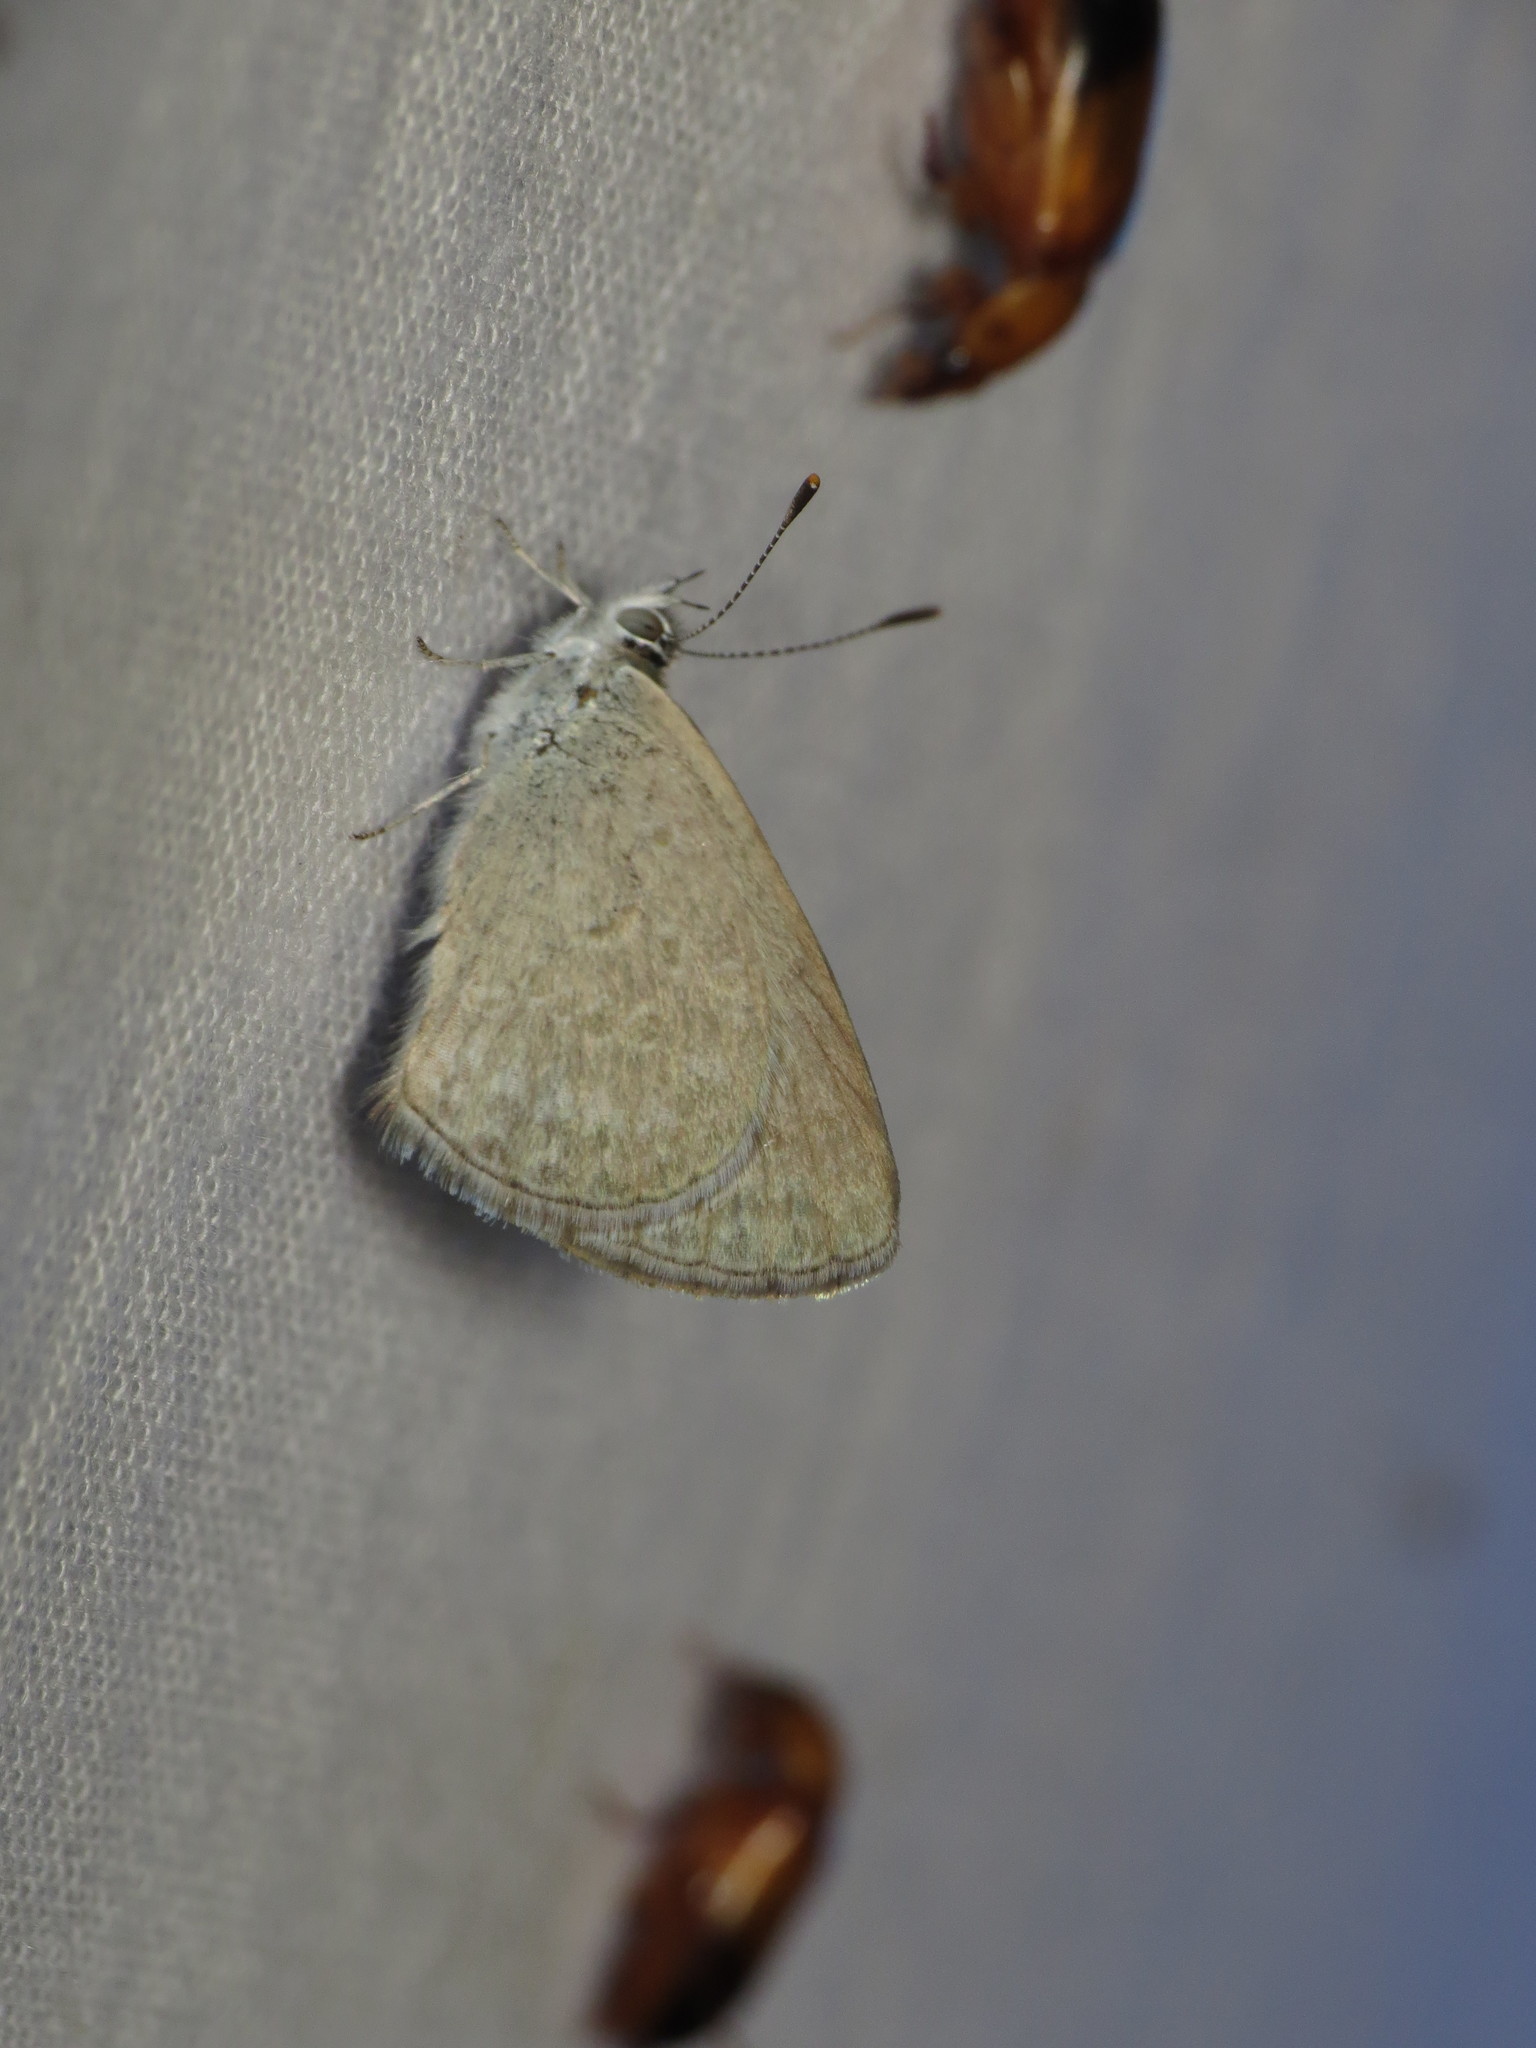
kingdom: Animalia
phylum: Arthropoda
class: Insecta
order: Lepidoptera
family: Lycaenidae
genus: Zizina
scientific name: Zizina labradus
